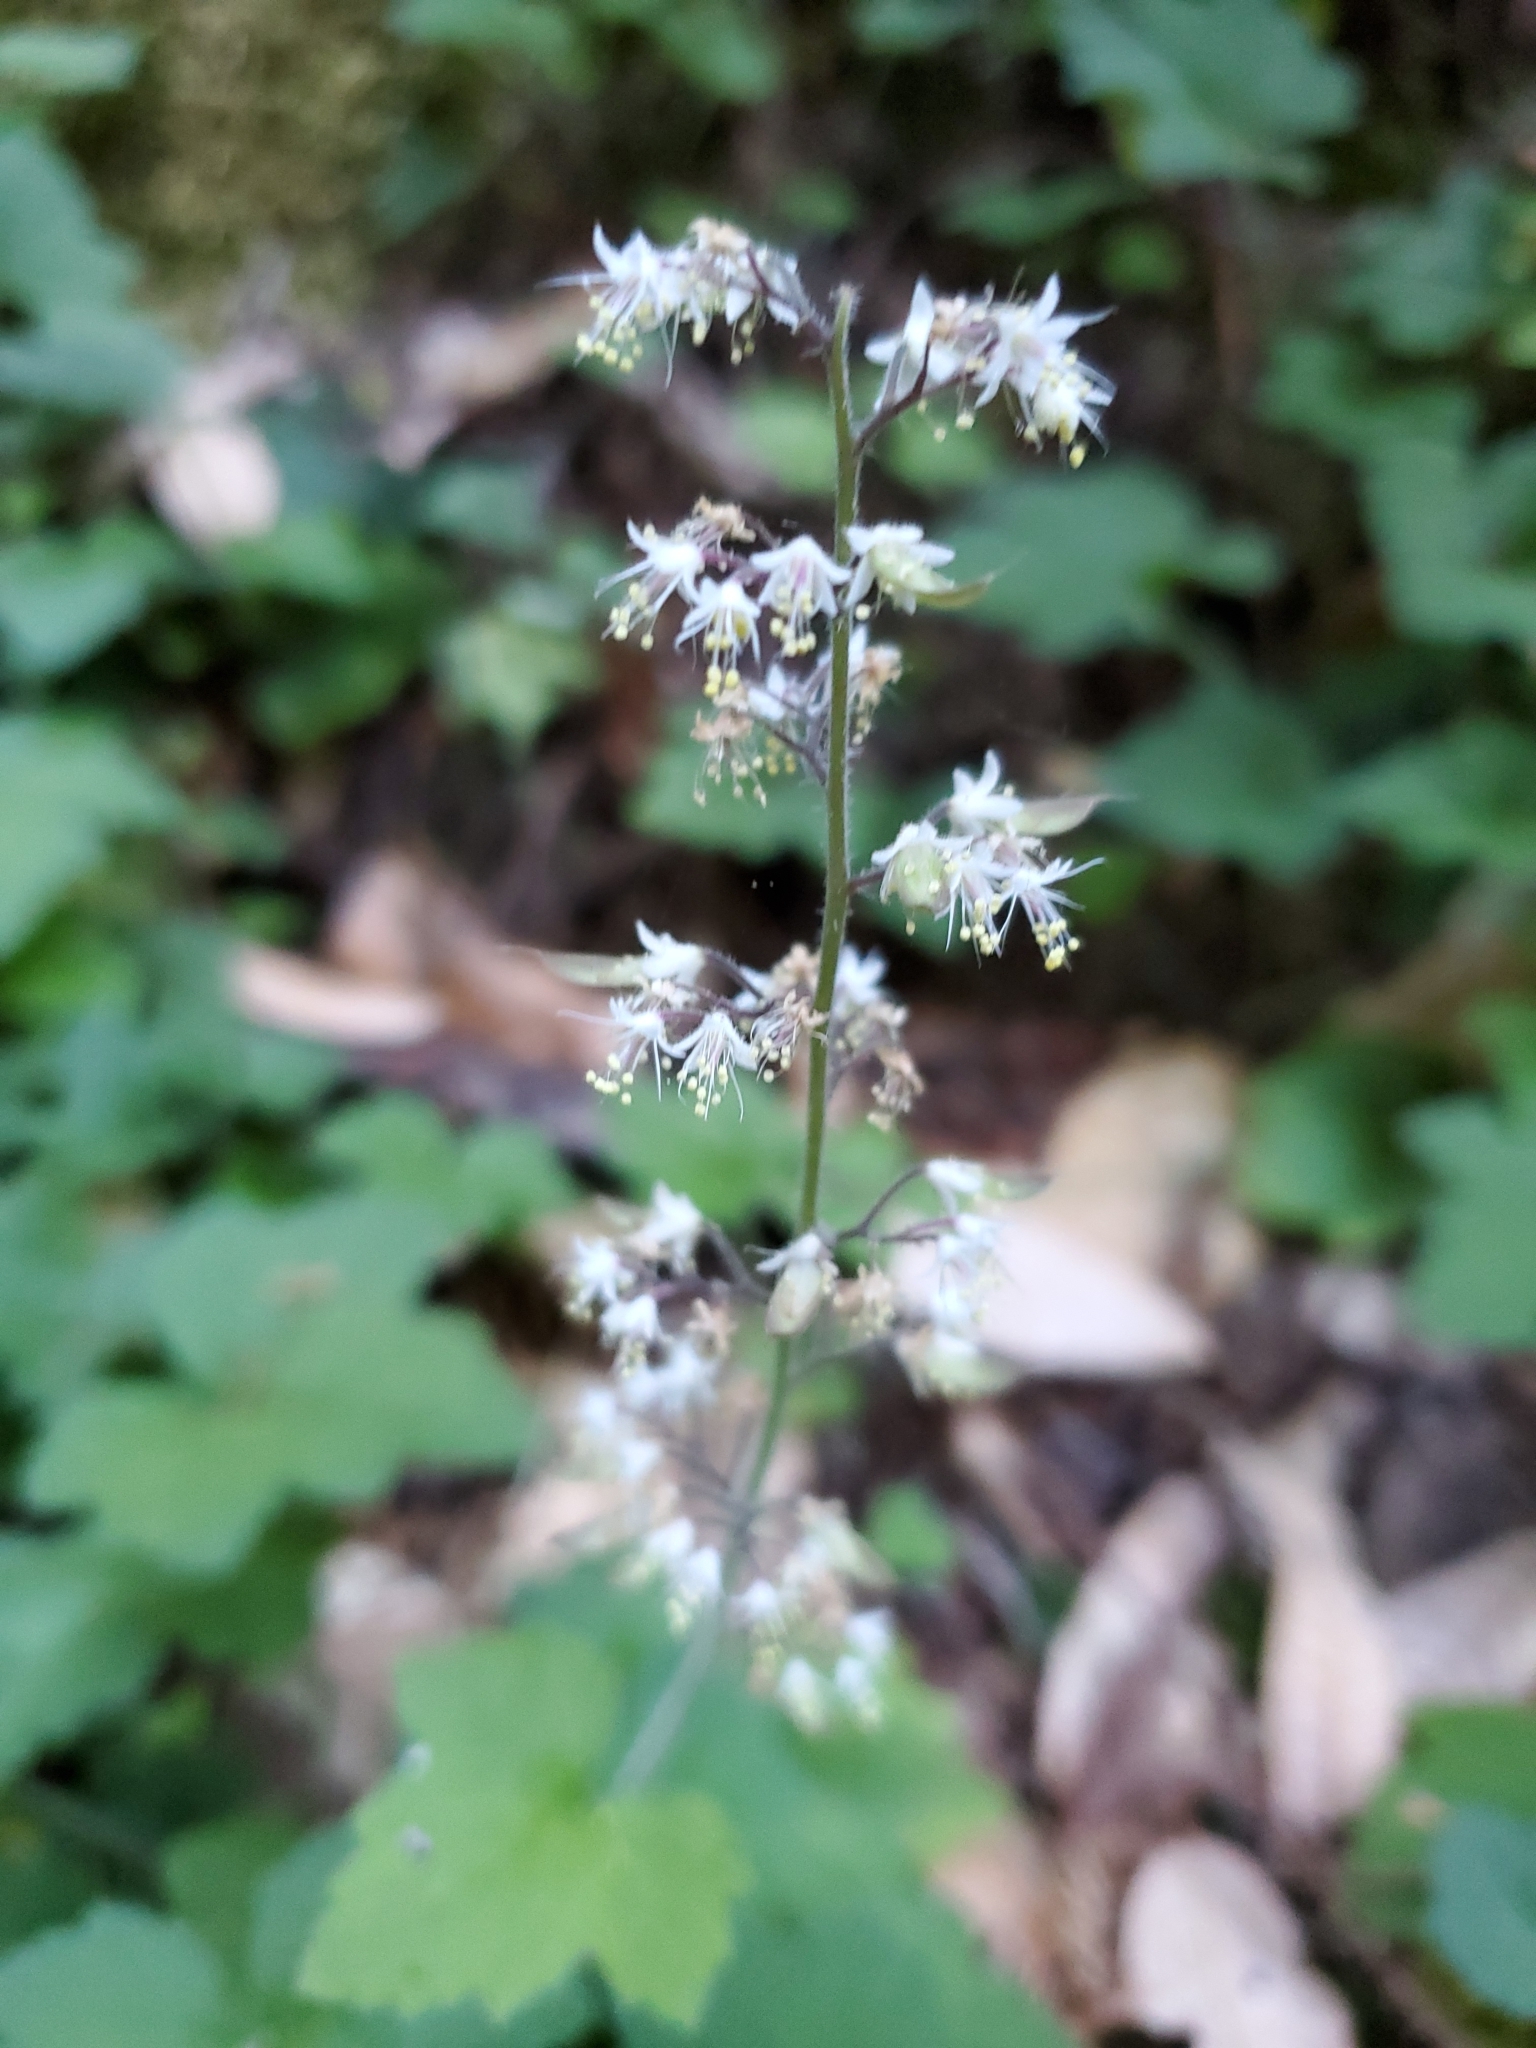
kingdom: Plantae
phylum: Tracheophyta
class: Magnoliopsida
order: Saxifragales
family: Saxifragaceae
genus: Tiarella
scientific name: Tiarella trifoliata
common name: Sugar-scoop
